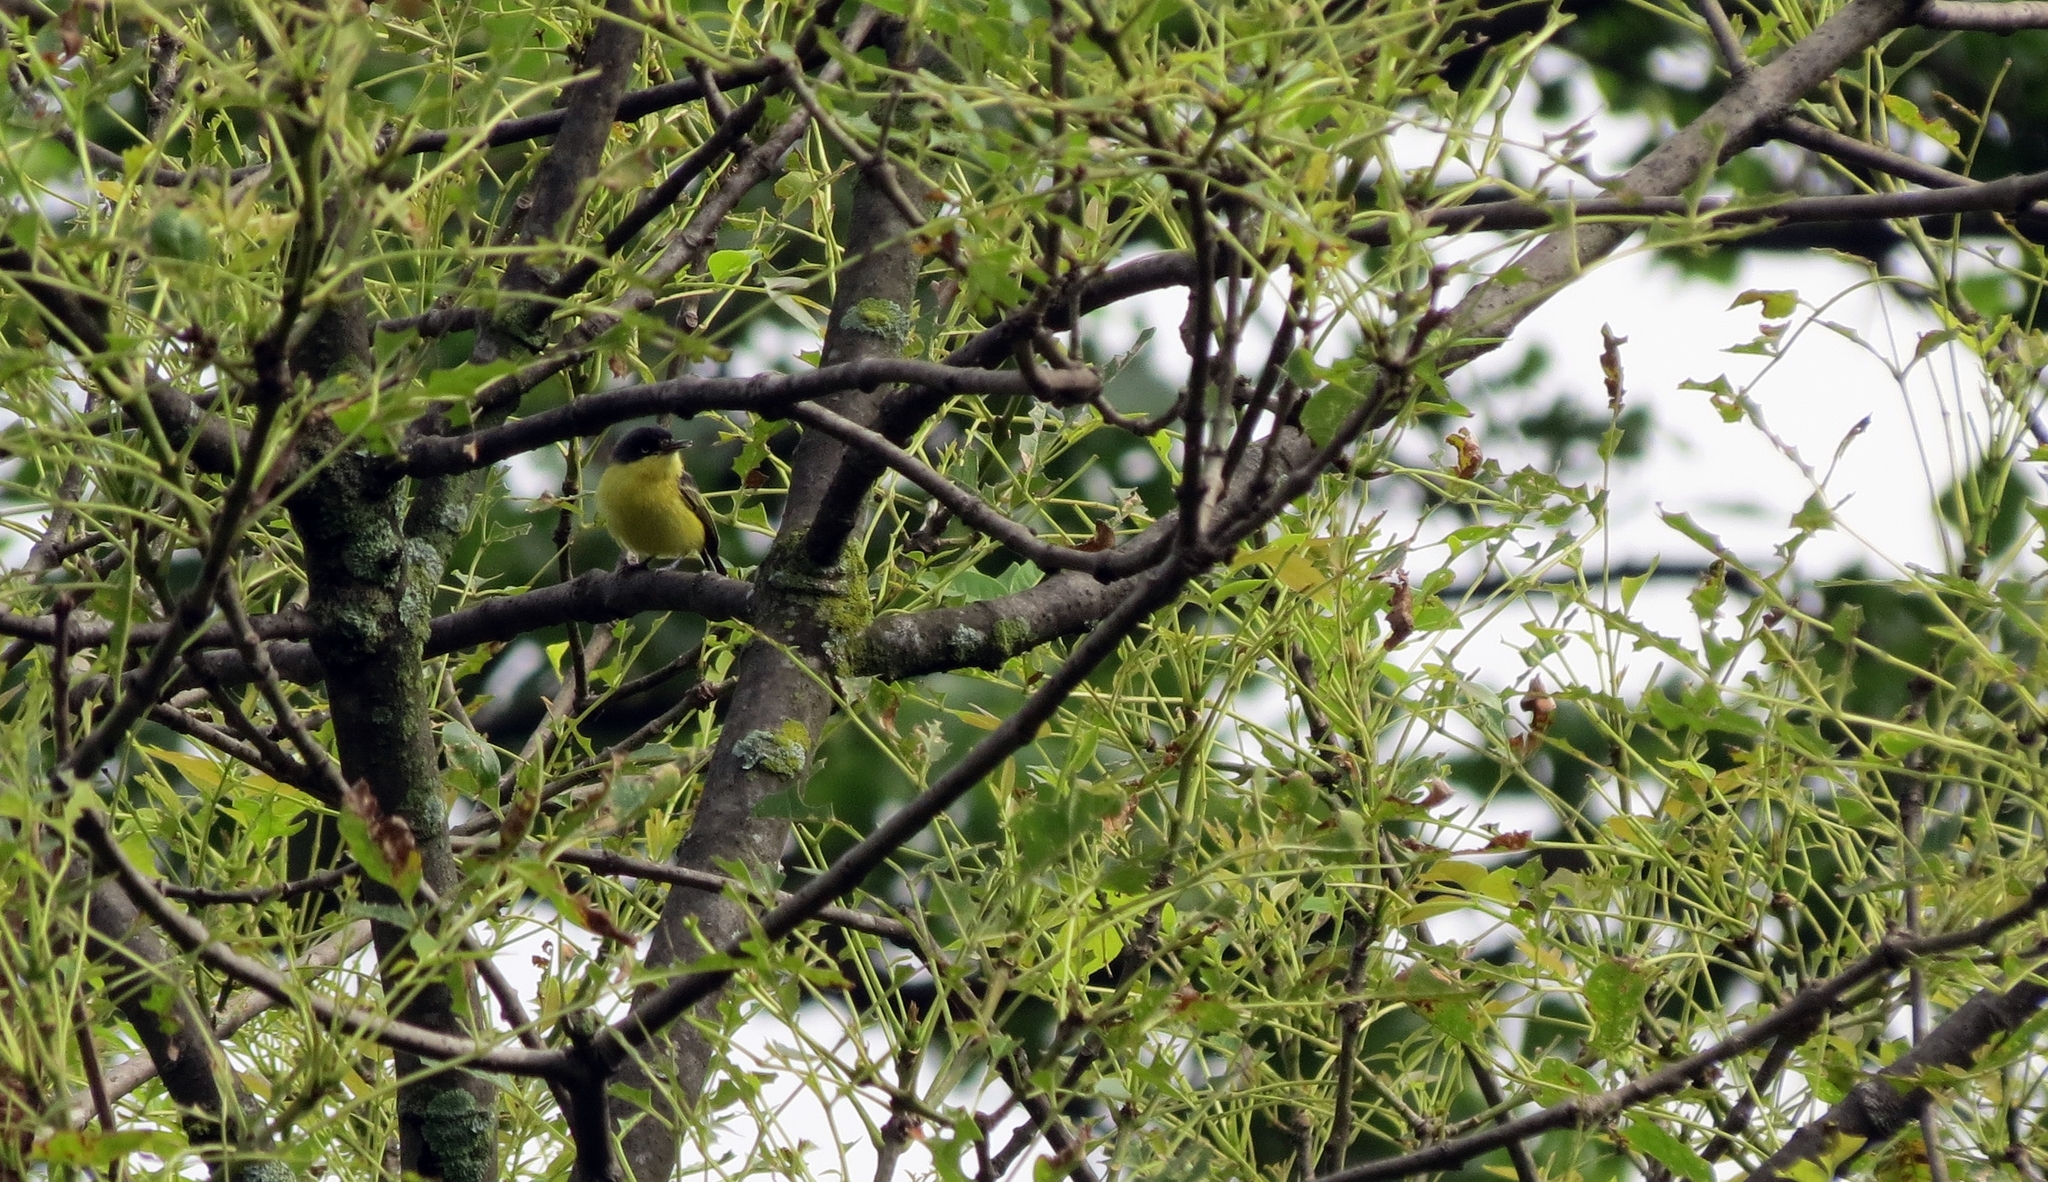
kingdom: Animalia
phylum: Chordata
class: Aves
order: Passeriformes
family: Tyrannidae
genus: Todirostrum
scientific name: Todirostrum cinereum
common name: Common tody-flycatcher
